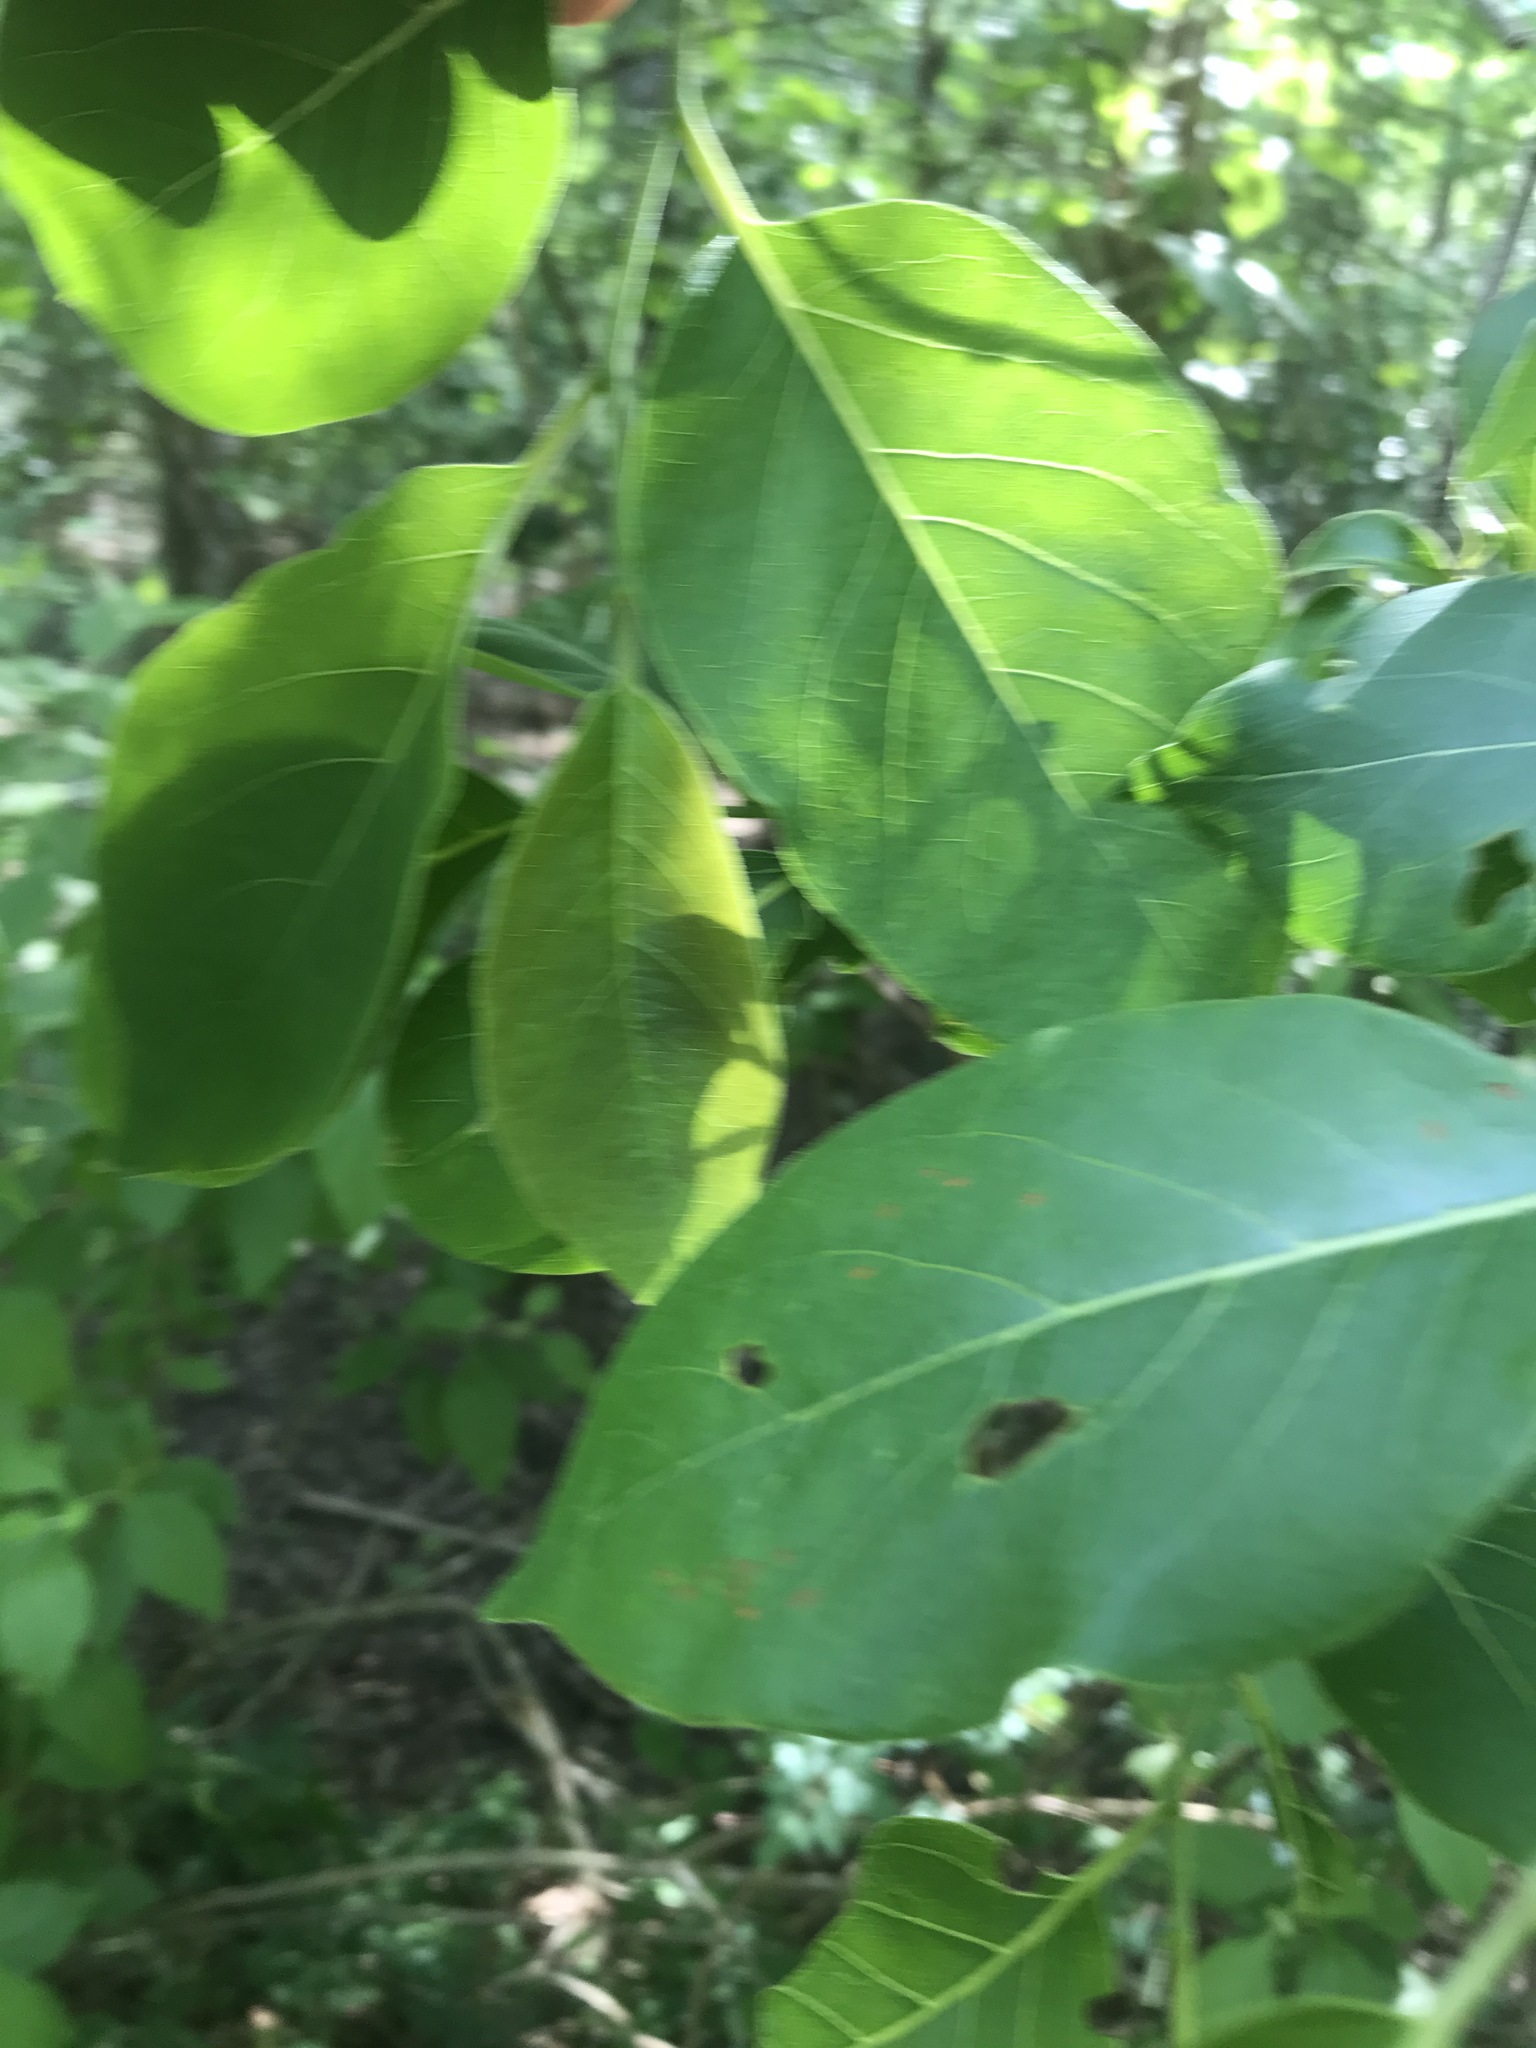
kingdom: Plantae
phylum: Tracheophyta
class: Magnoliopsida
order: Ericales
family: Ebenaceae
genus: Diospyros
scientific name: Diospyros virginiana
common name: Persimmon
